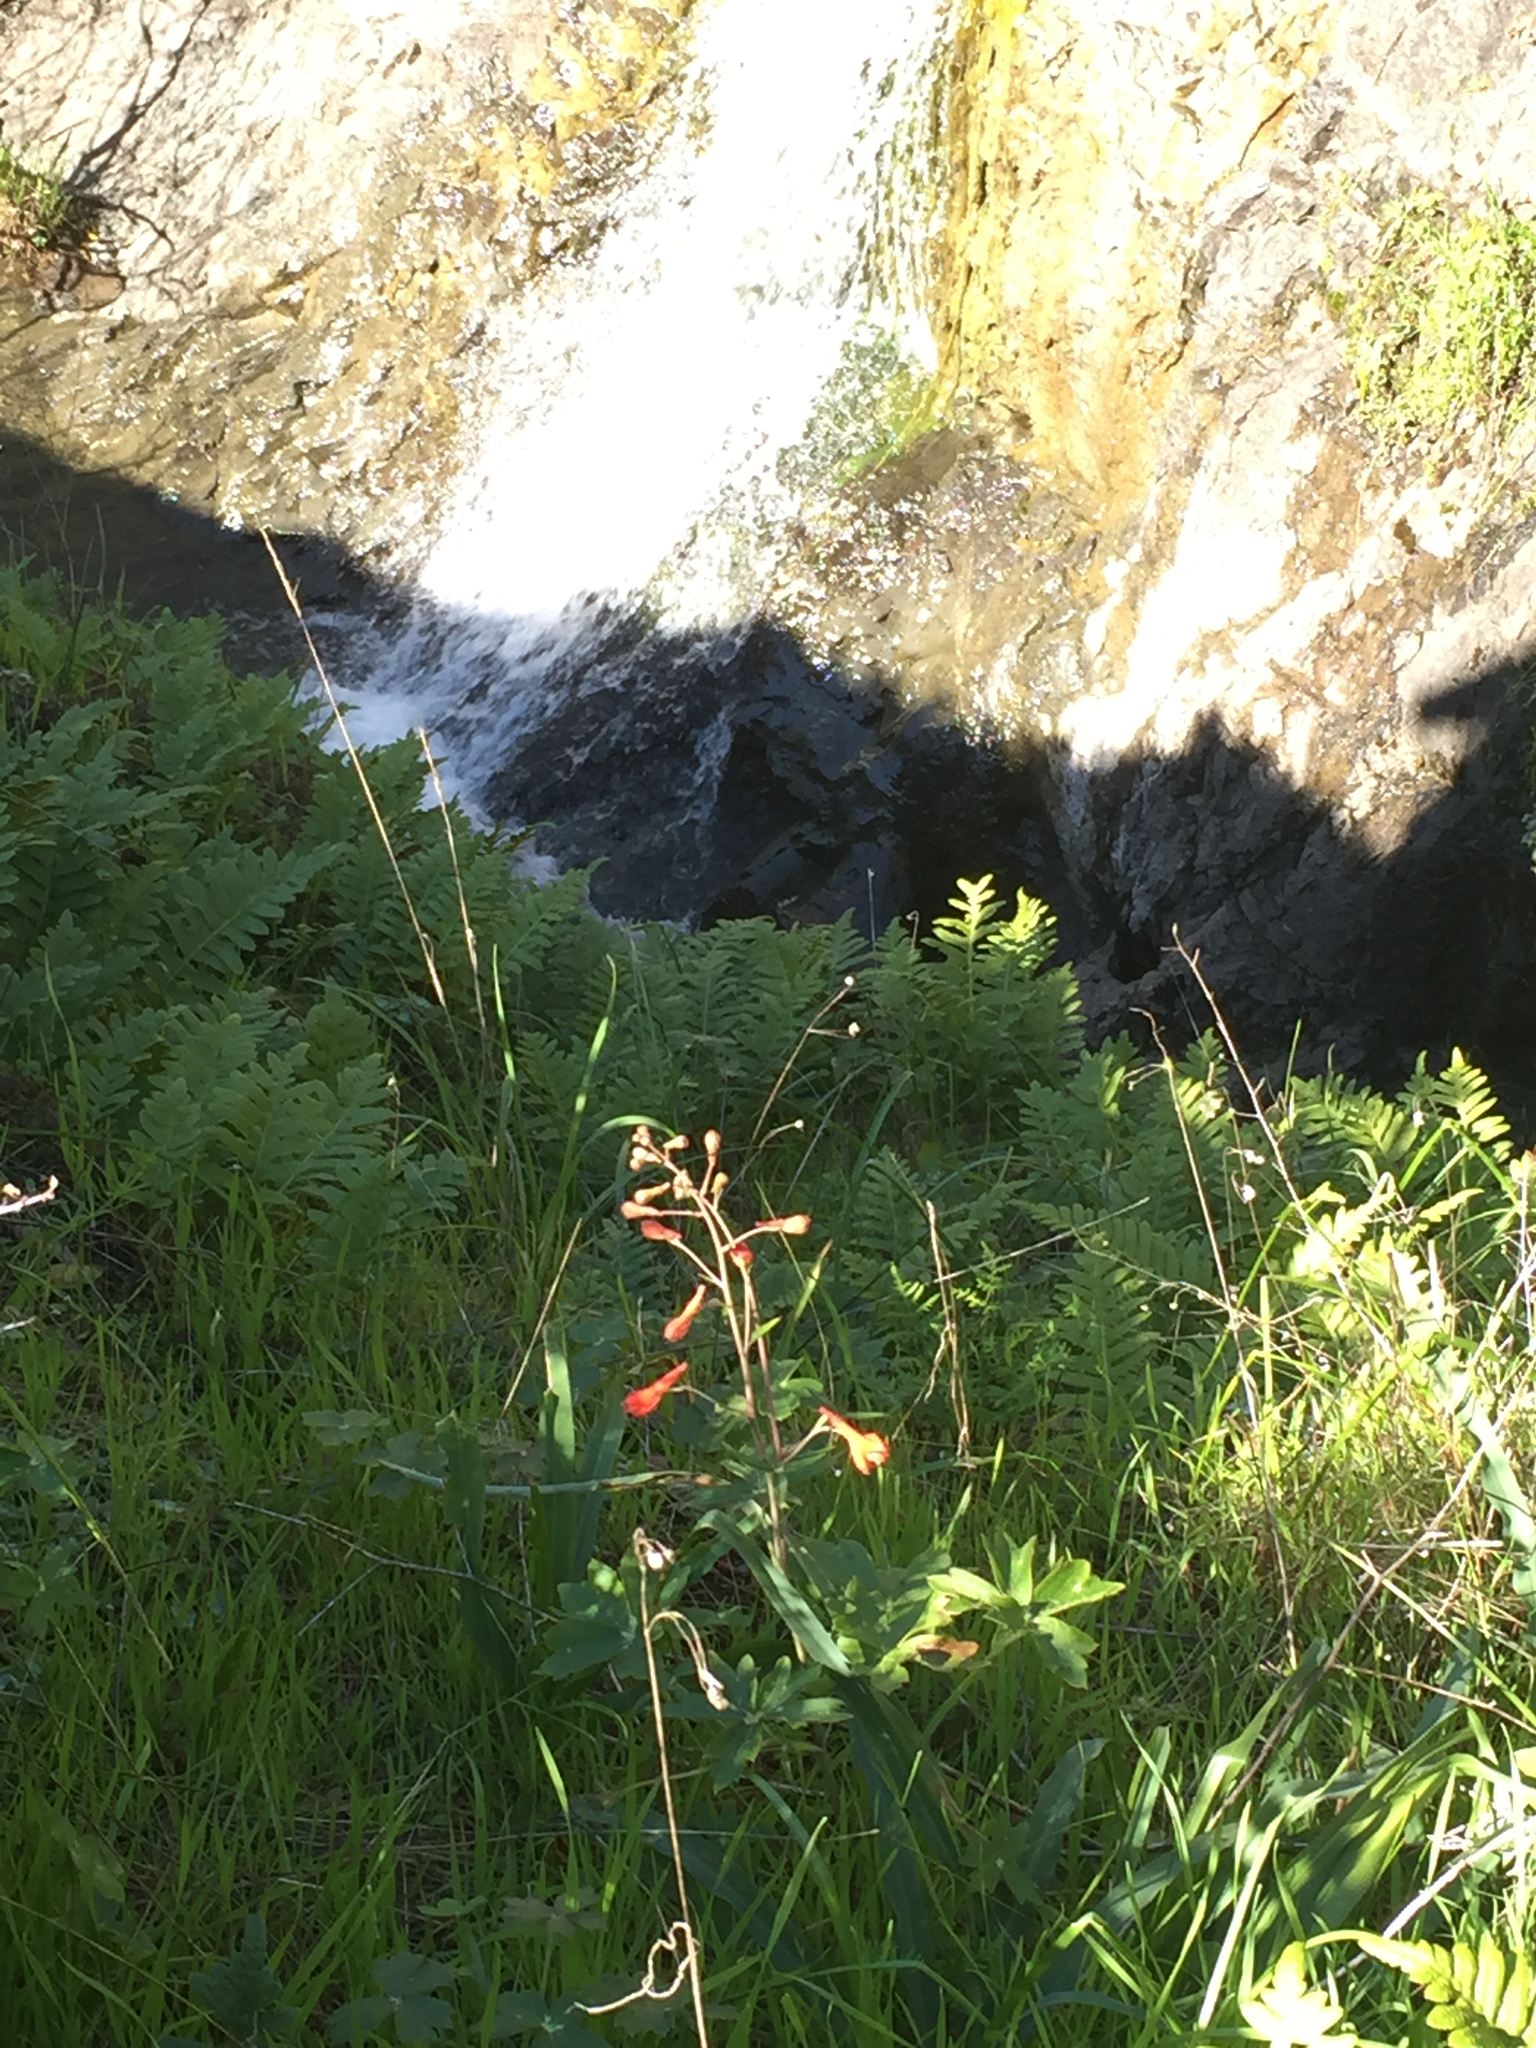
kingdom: Plantae
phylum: Tracheophyta
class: Magnoliopsida
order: Ranunculales
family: Ranunculaceae
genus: Delphinium
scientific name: Delphinium nudicaule
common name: Red larkspur
